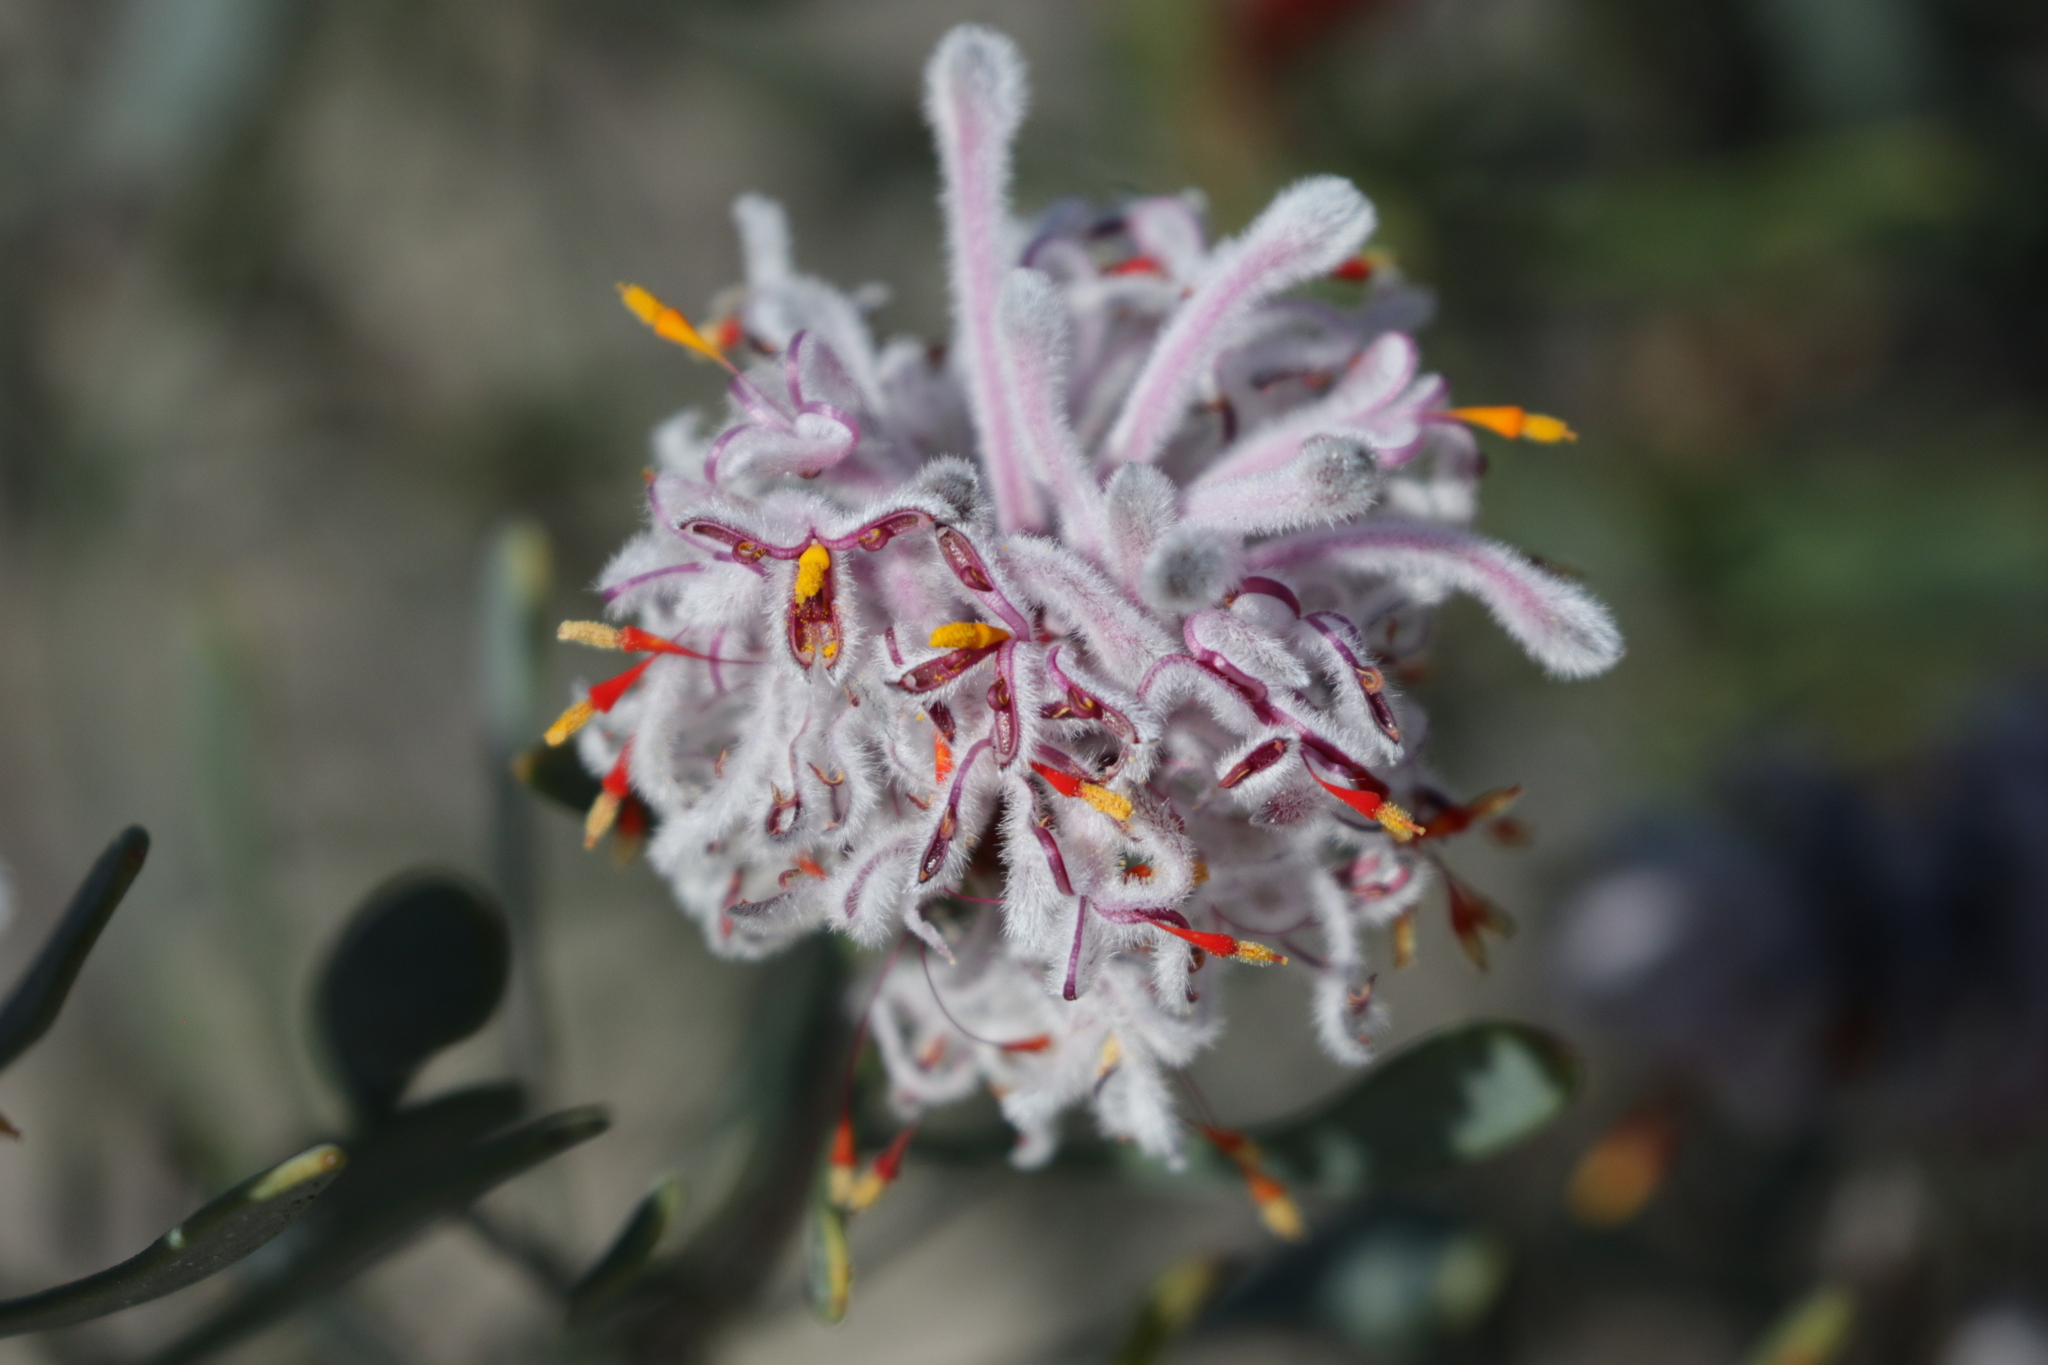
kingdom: Plantae
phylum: Tracheophyta
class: Magnoliopsida
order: Proteales
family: Proteaceae
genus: Petrophile
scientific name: Petrophile linearis
